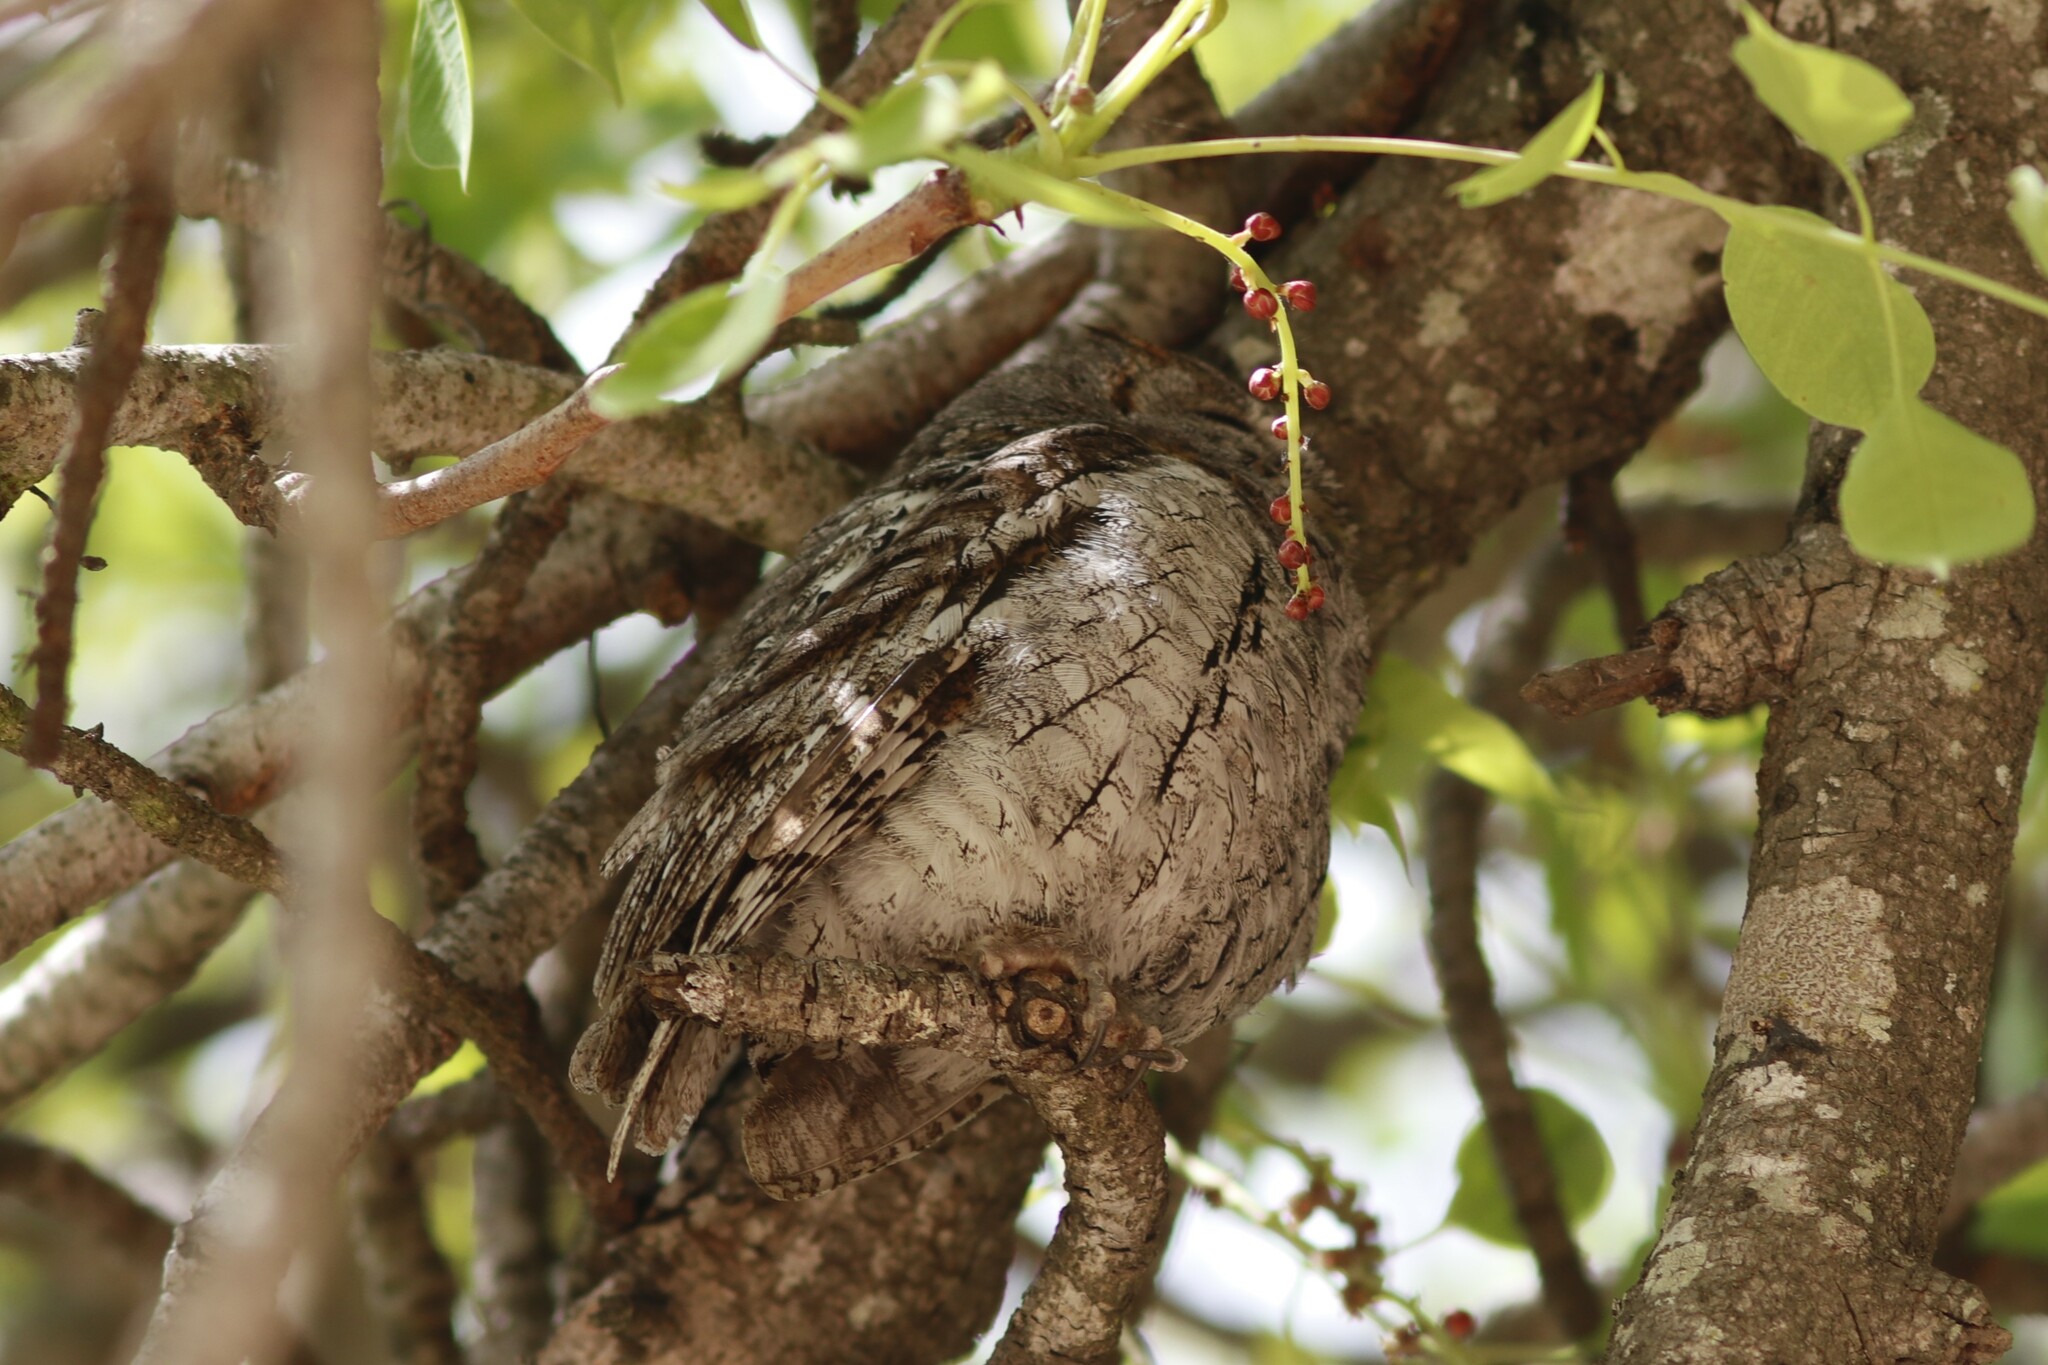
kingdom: Animalia
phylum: Chordata
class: Aves
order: Strigiformes
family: Strigidae
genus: Otus
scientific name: Otus senegalensis
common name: African scops owl
